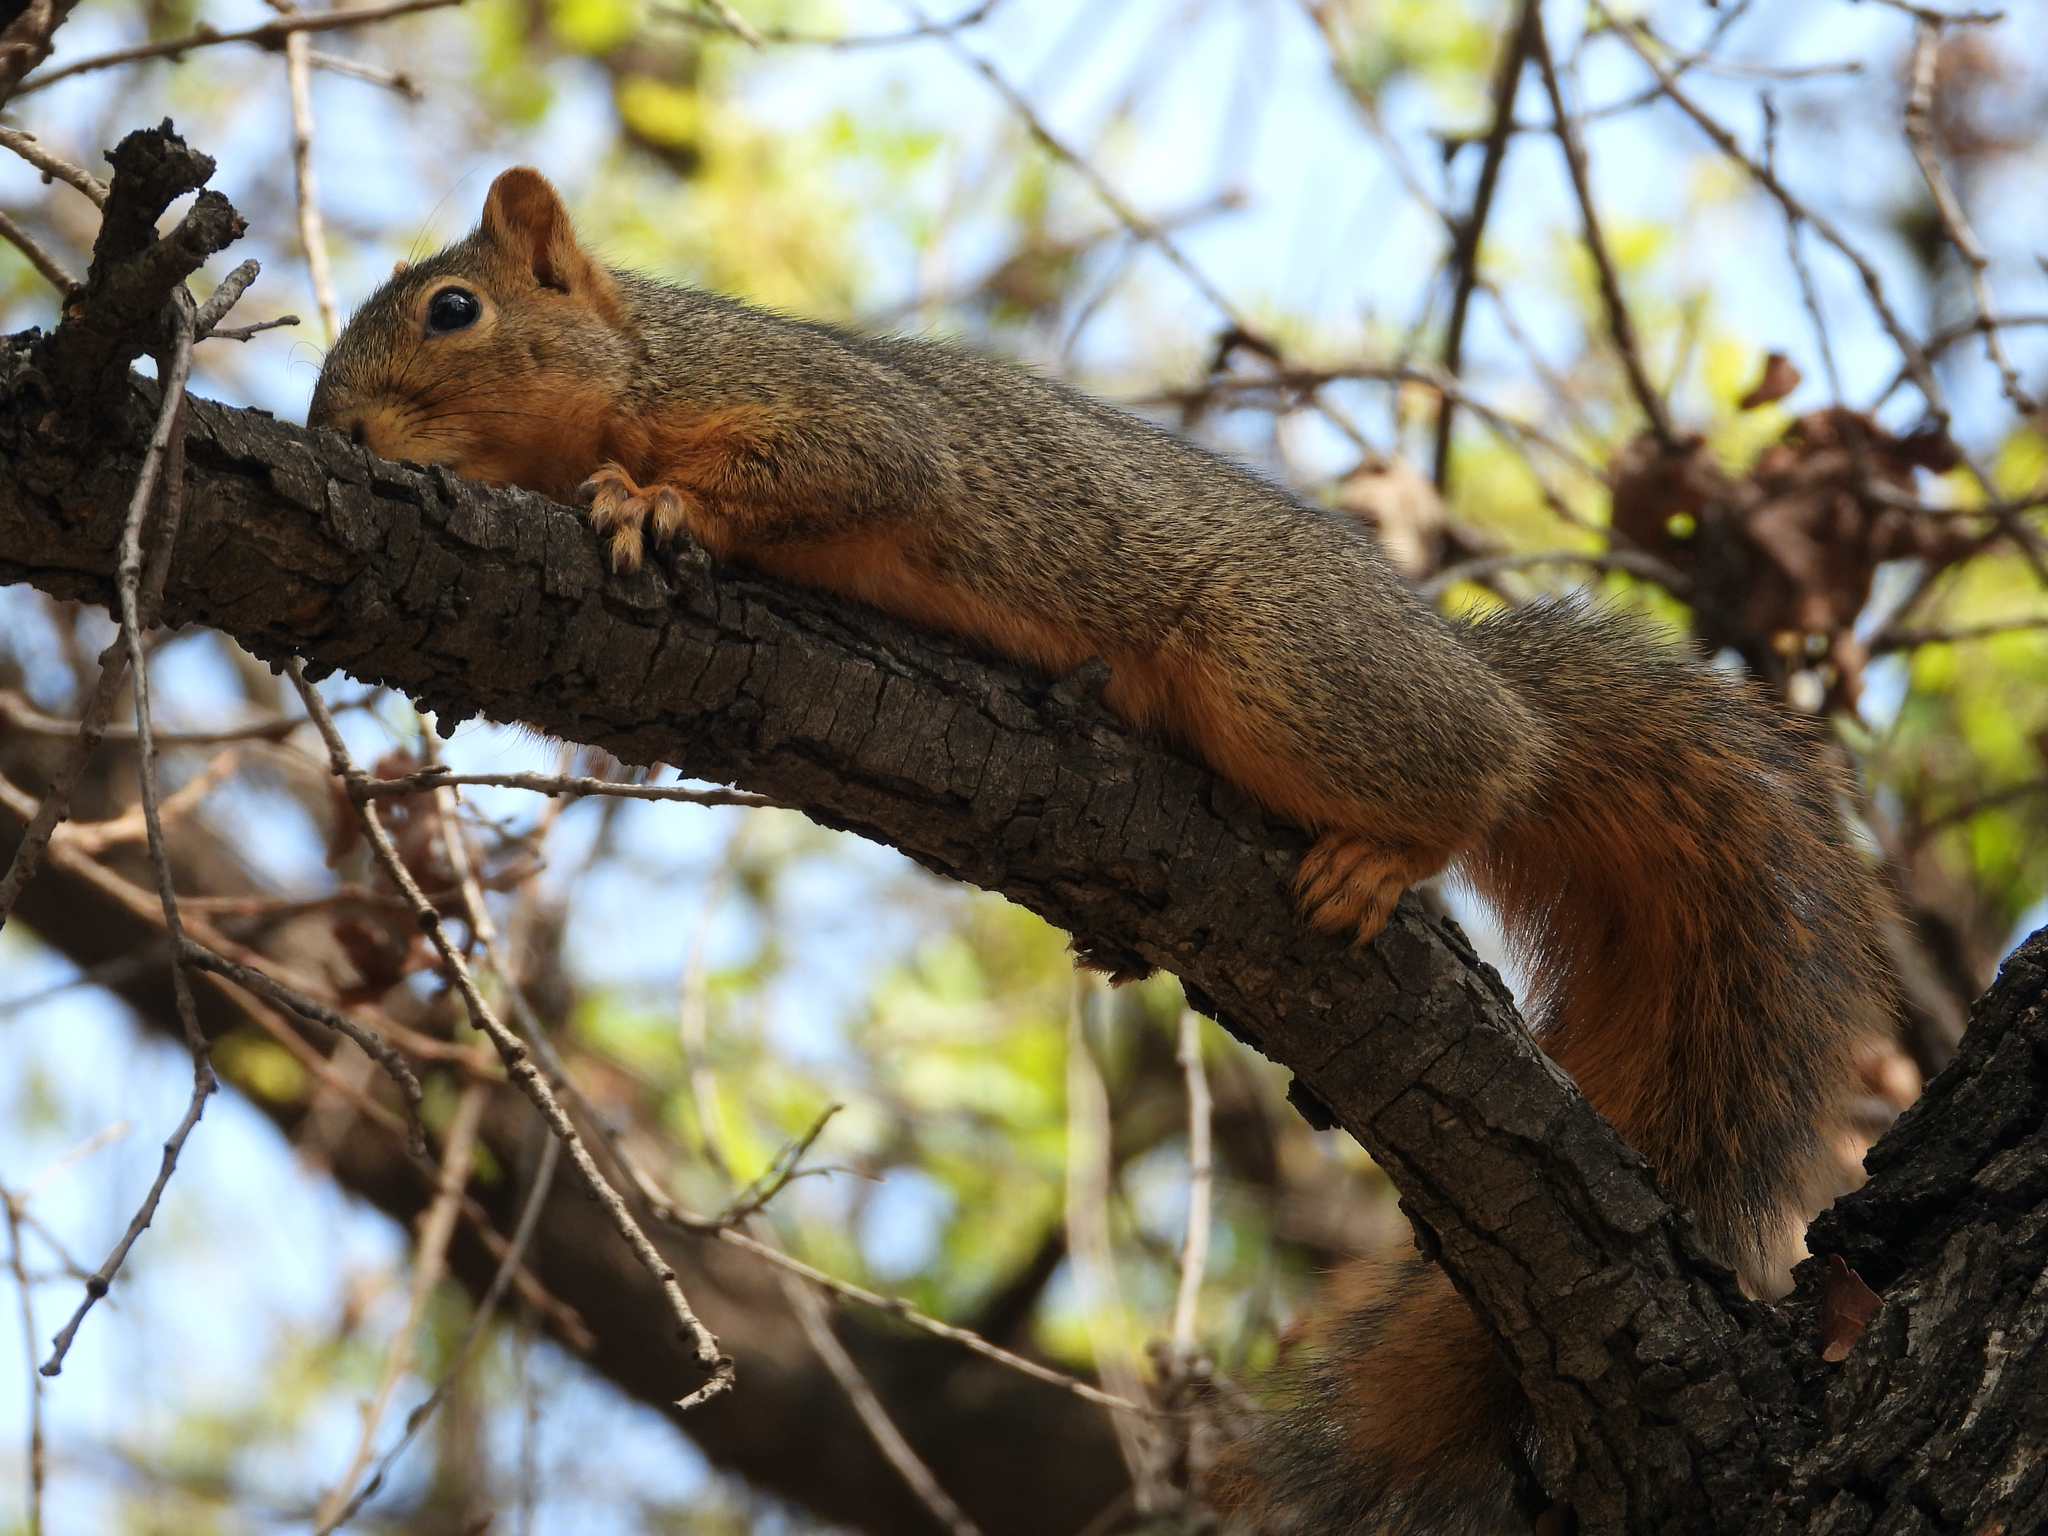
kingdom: Animalia
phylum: Chordata
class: Mammalia
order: Rodentia
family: Sciuridae
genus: Sciurus
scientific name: Sciurus niger
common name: Fox squirrel
